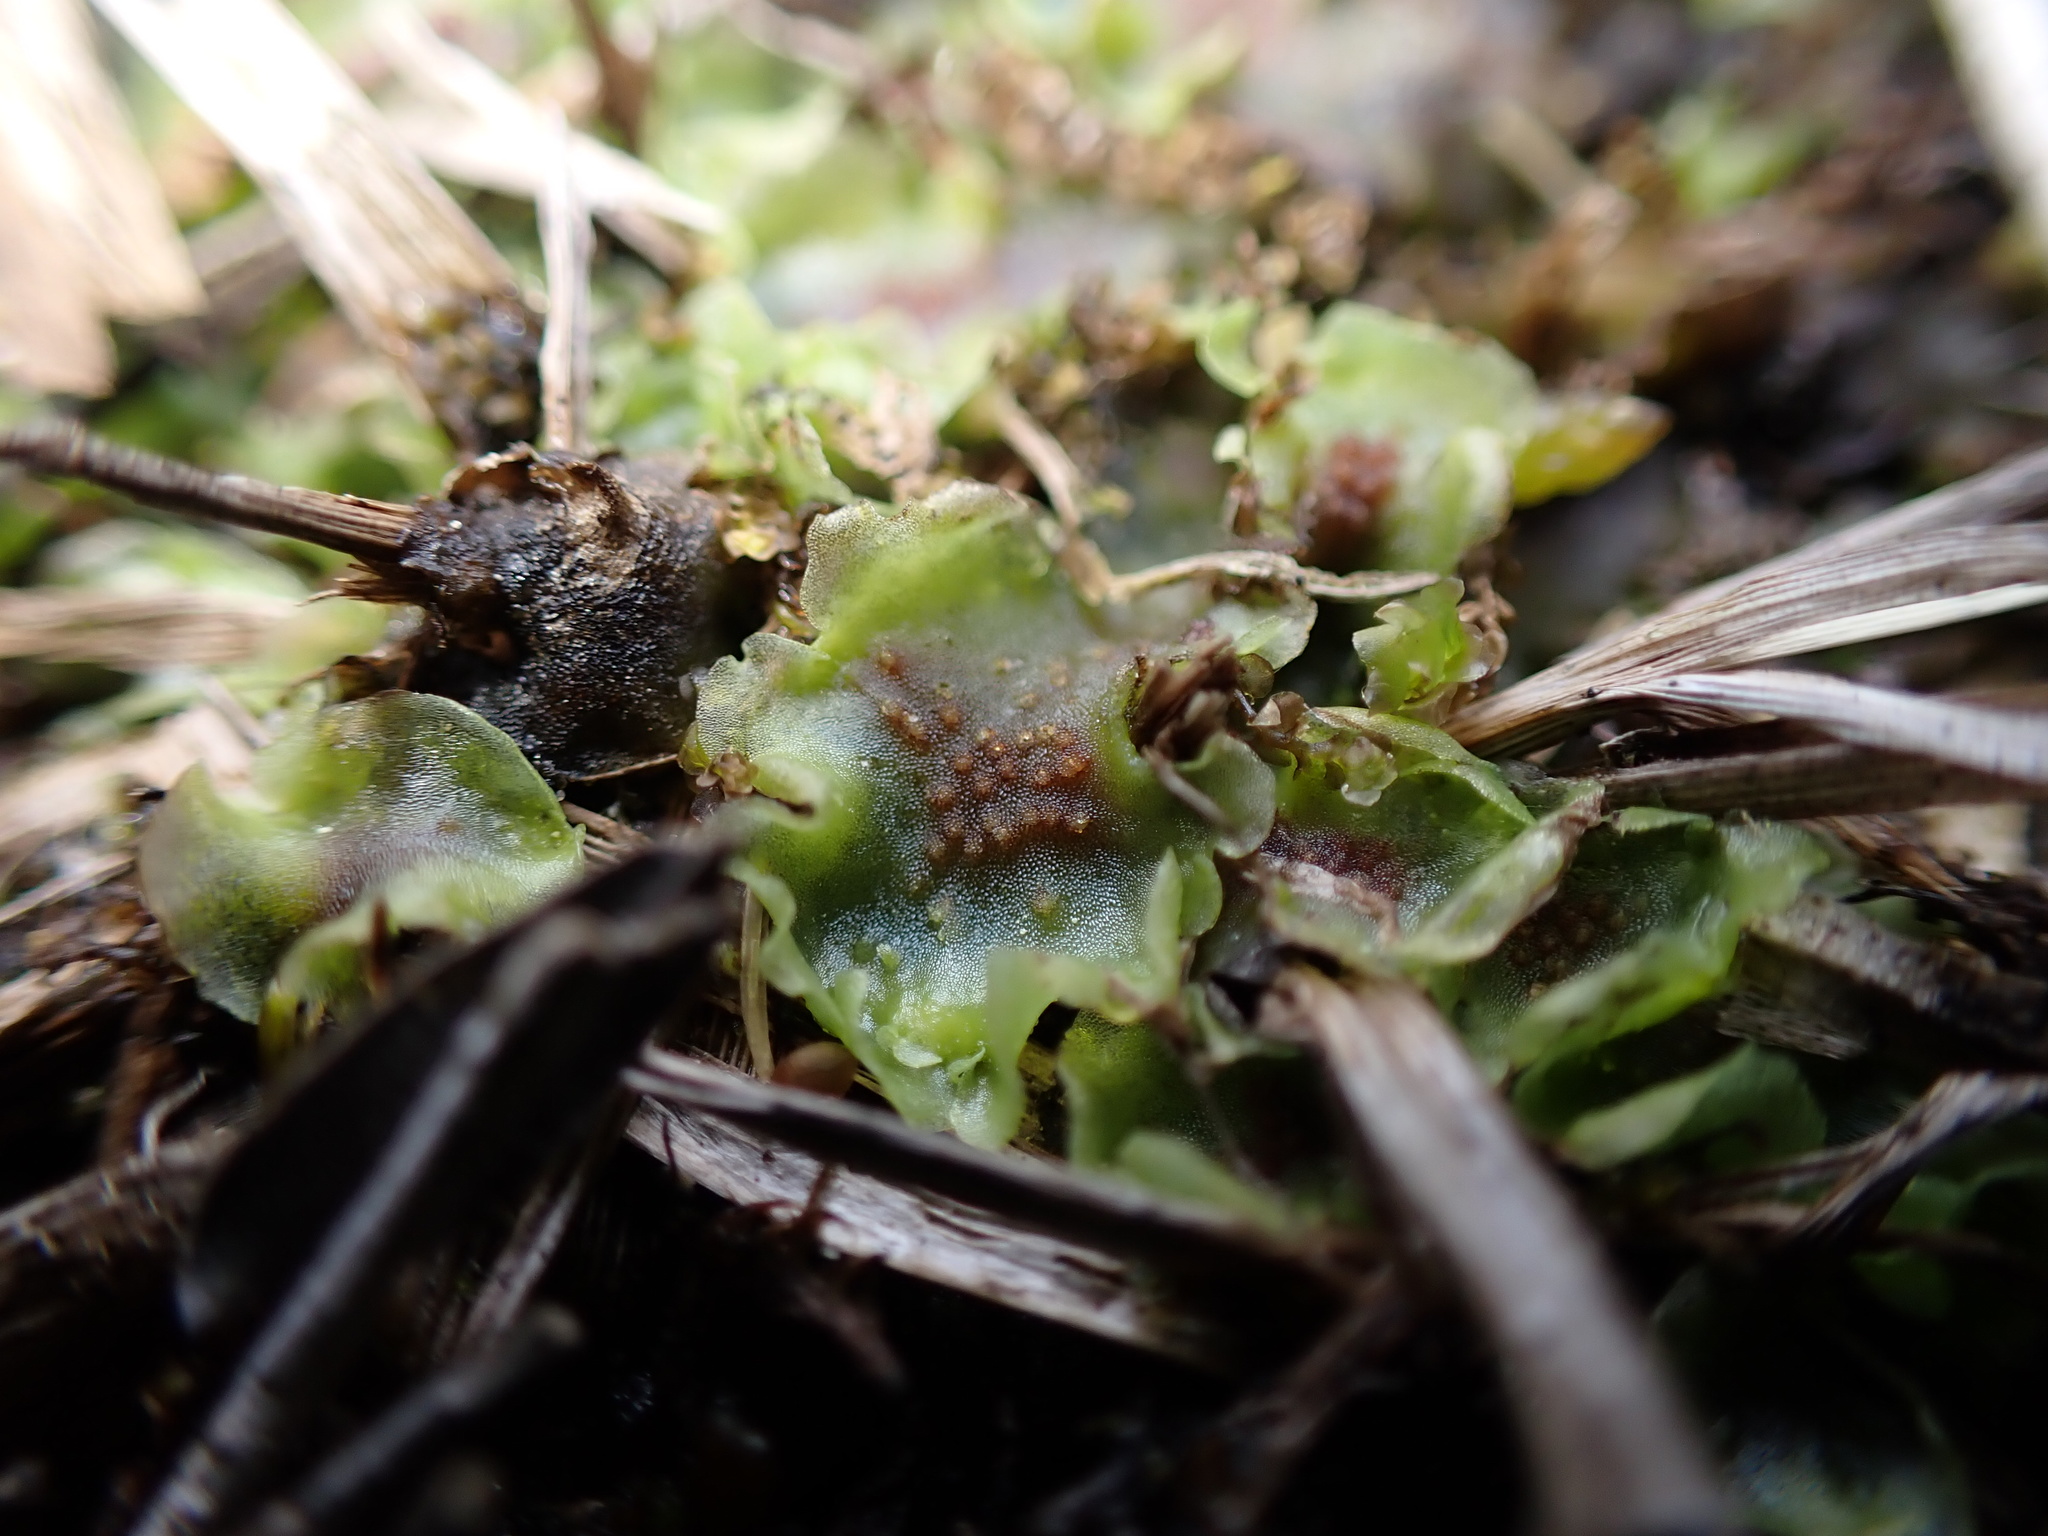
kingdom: Plantae
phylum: Marchantiophyta
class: Jungermanniopsida
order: Pelliales
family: Pelliaceae
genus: Pellia
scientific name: Pellia neesiana
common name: Nees  pellia
